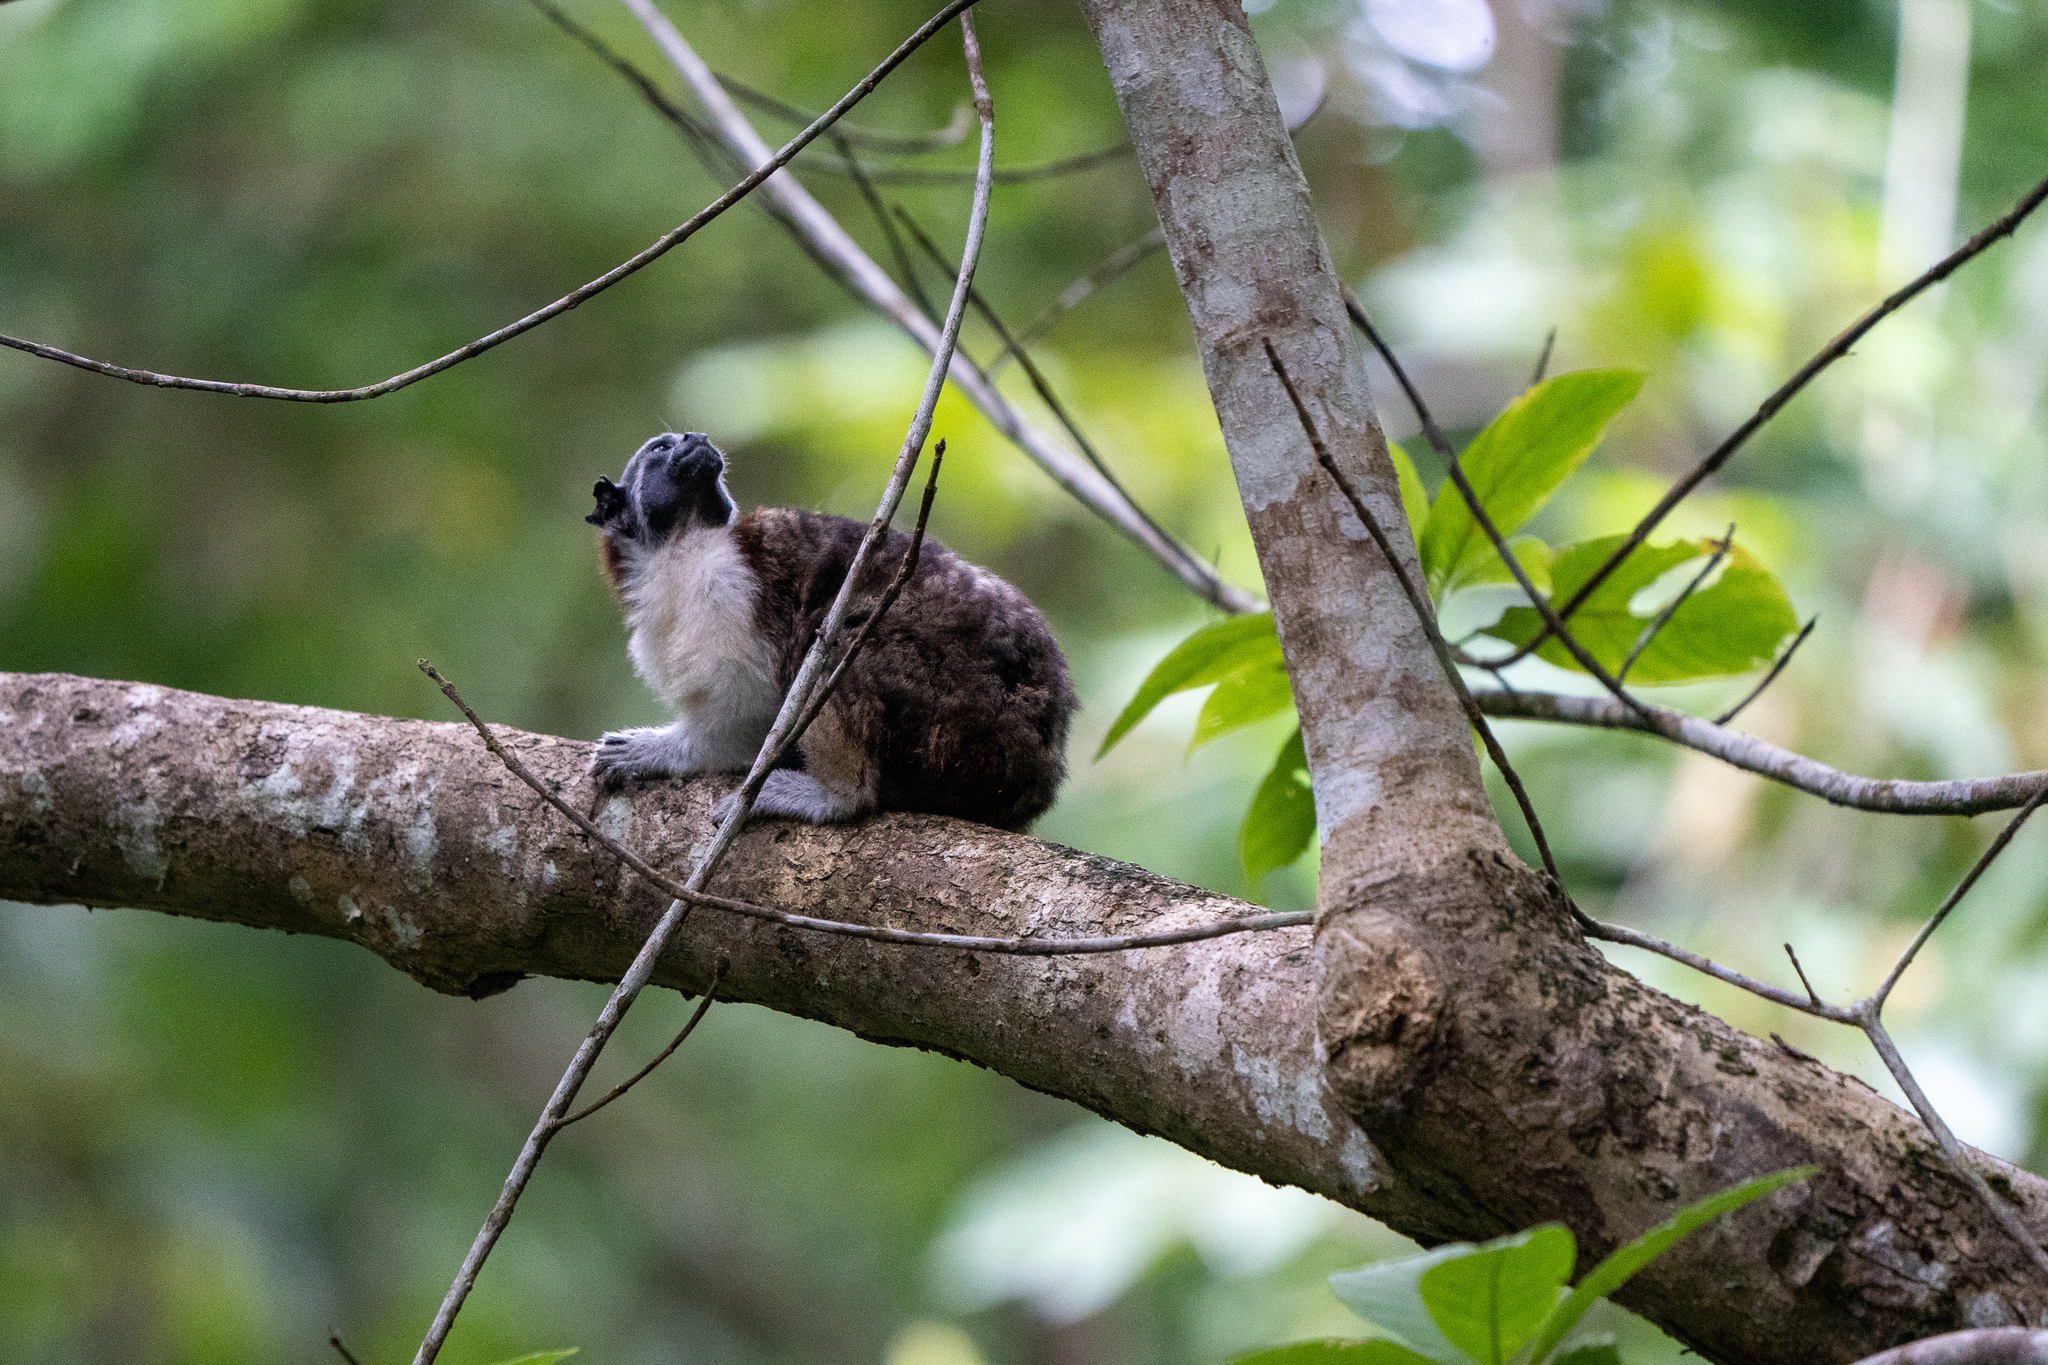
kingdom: Animalia
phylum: Chordata
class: Mammalia
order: Primates
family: Callitrichidae
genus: Saguinus
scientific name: Saguinus geoffroyi
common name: Geoffroy s tamarin
